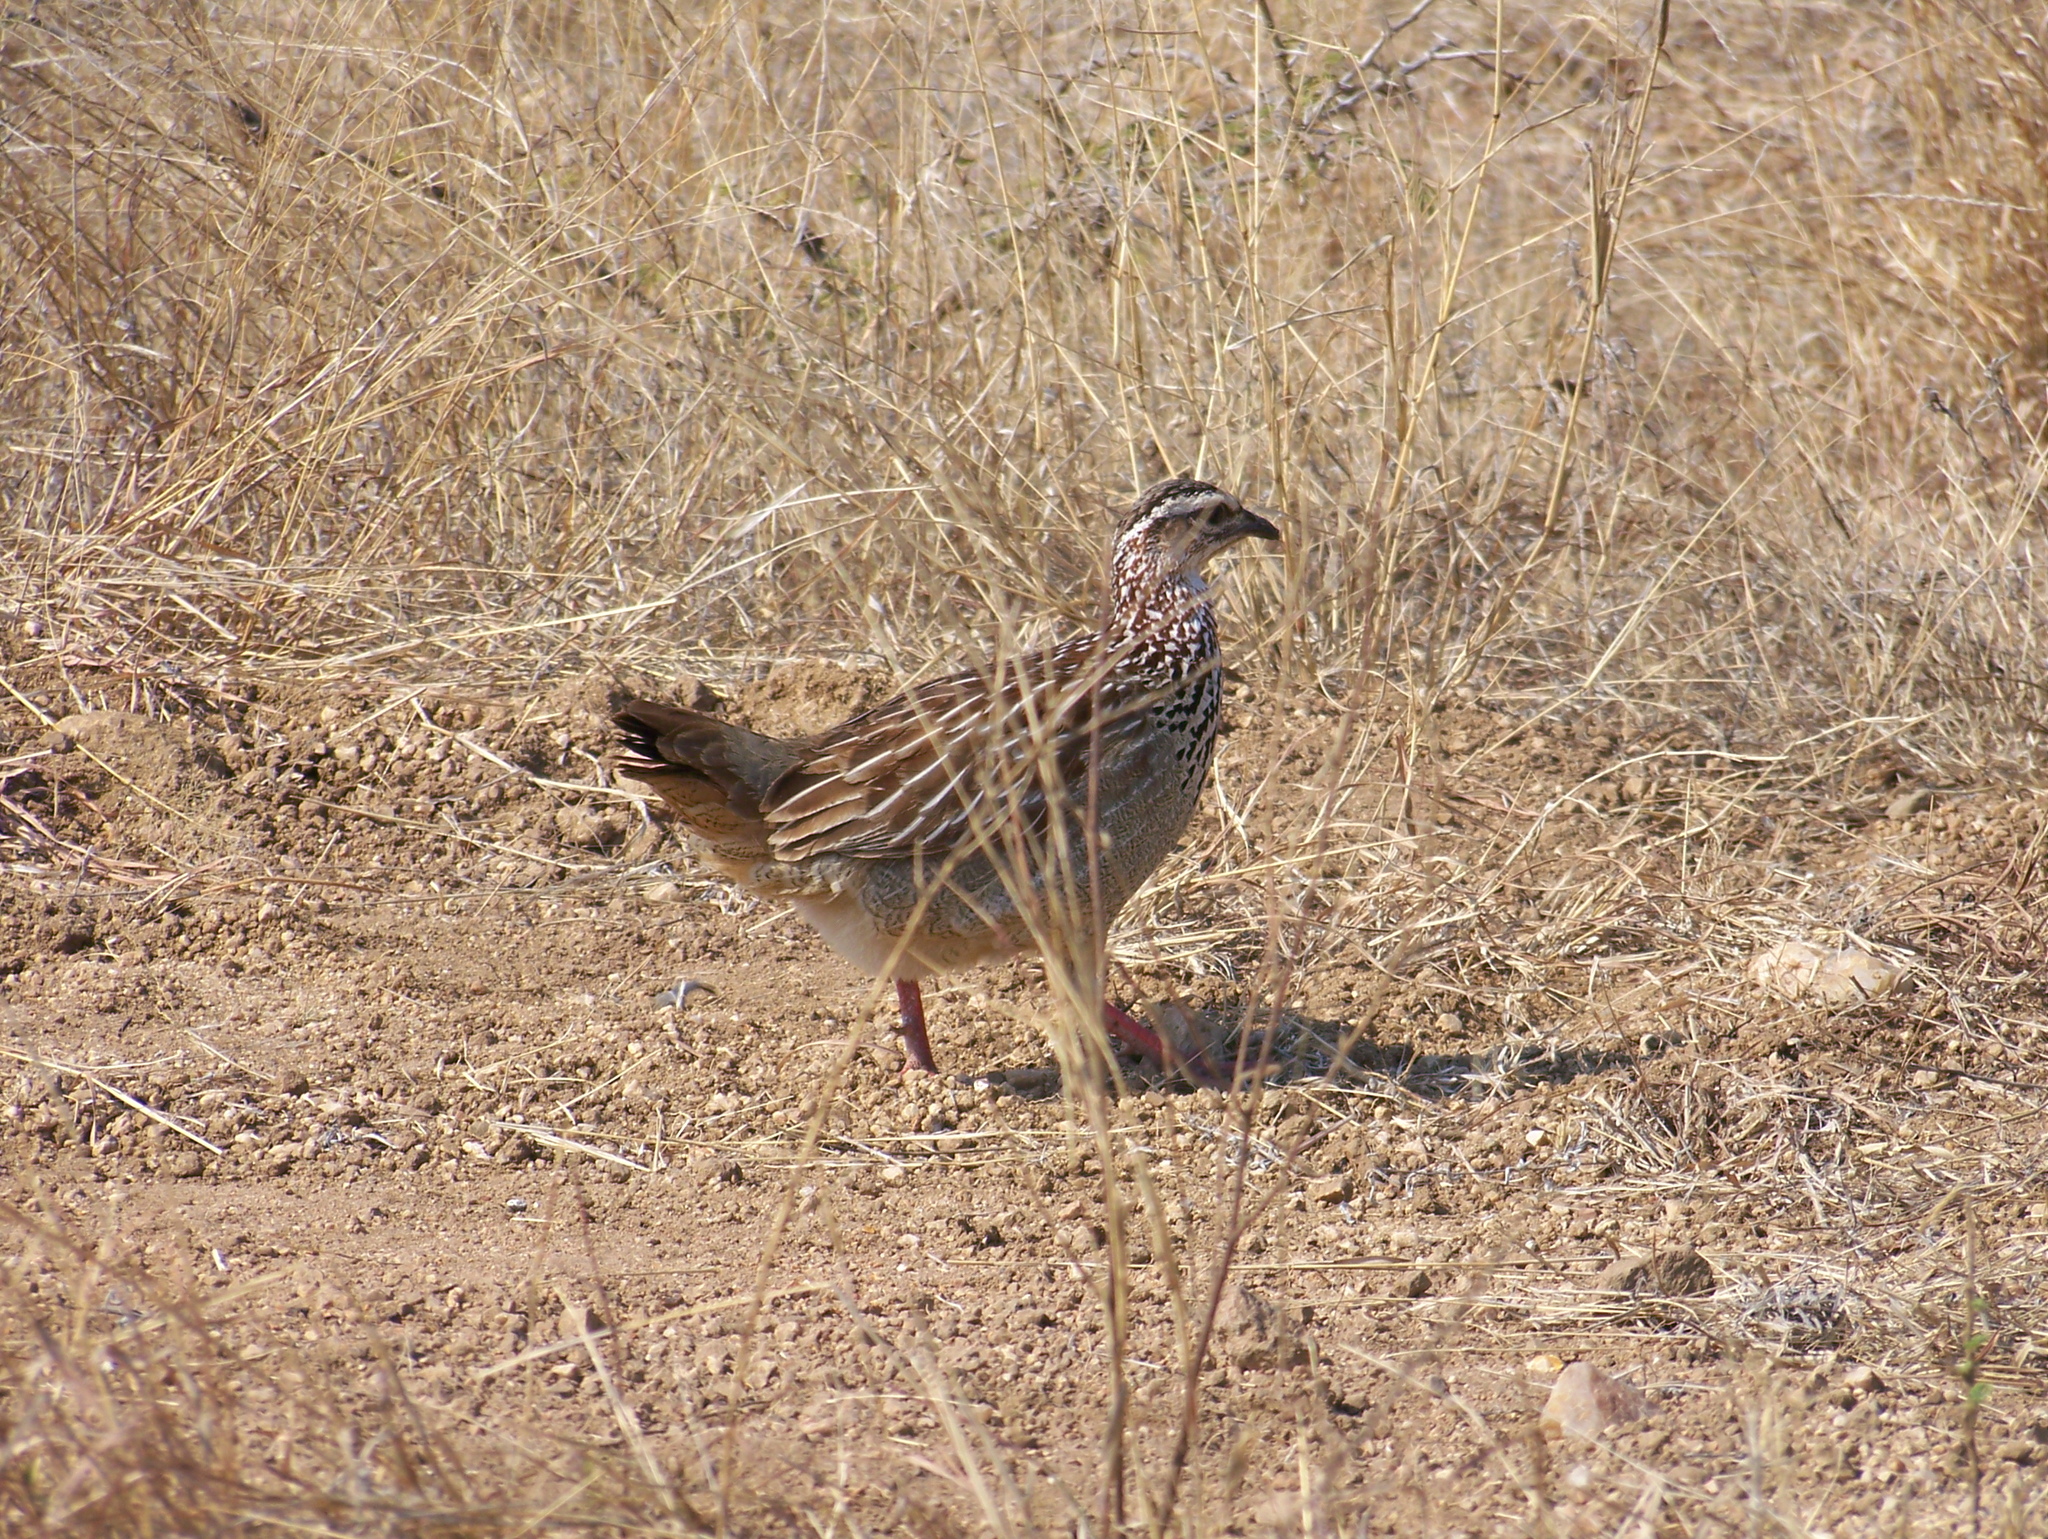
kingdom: Animalia
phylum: Chordata
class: Aves
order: Galliformes
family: Phasianidae
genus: Ortygornis
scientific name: Ortygornis sephaena
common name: Crested francolin
